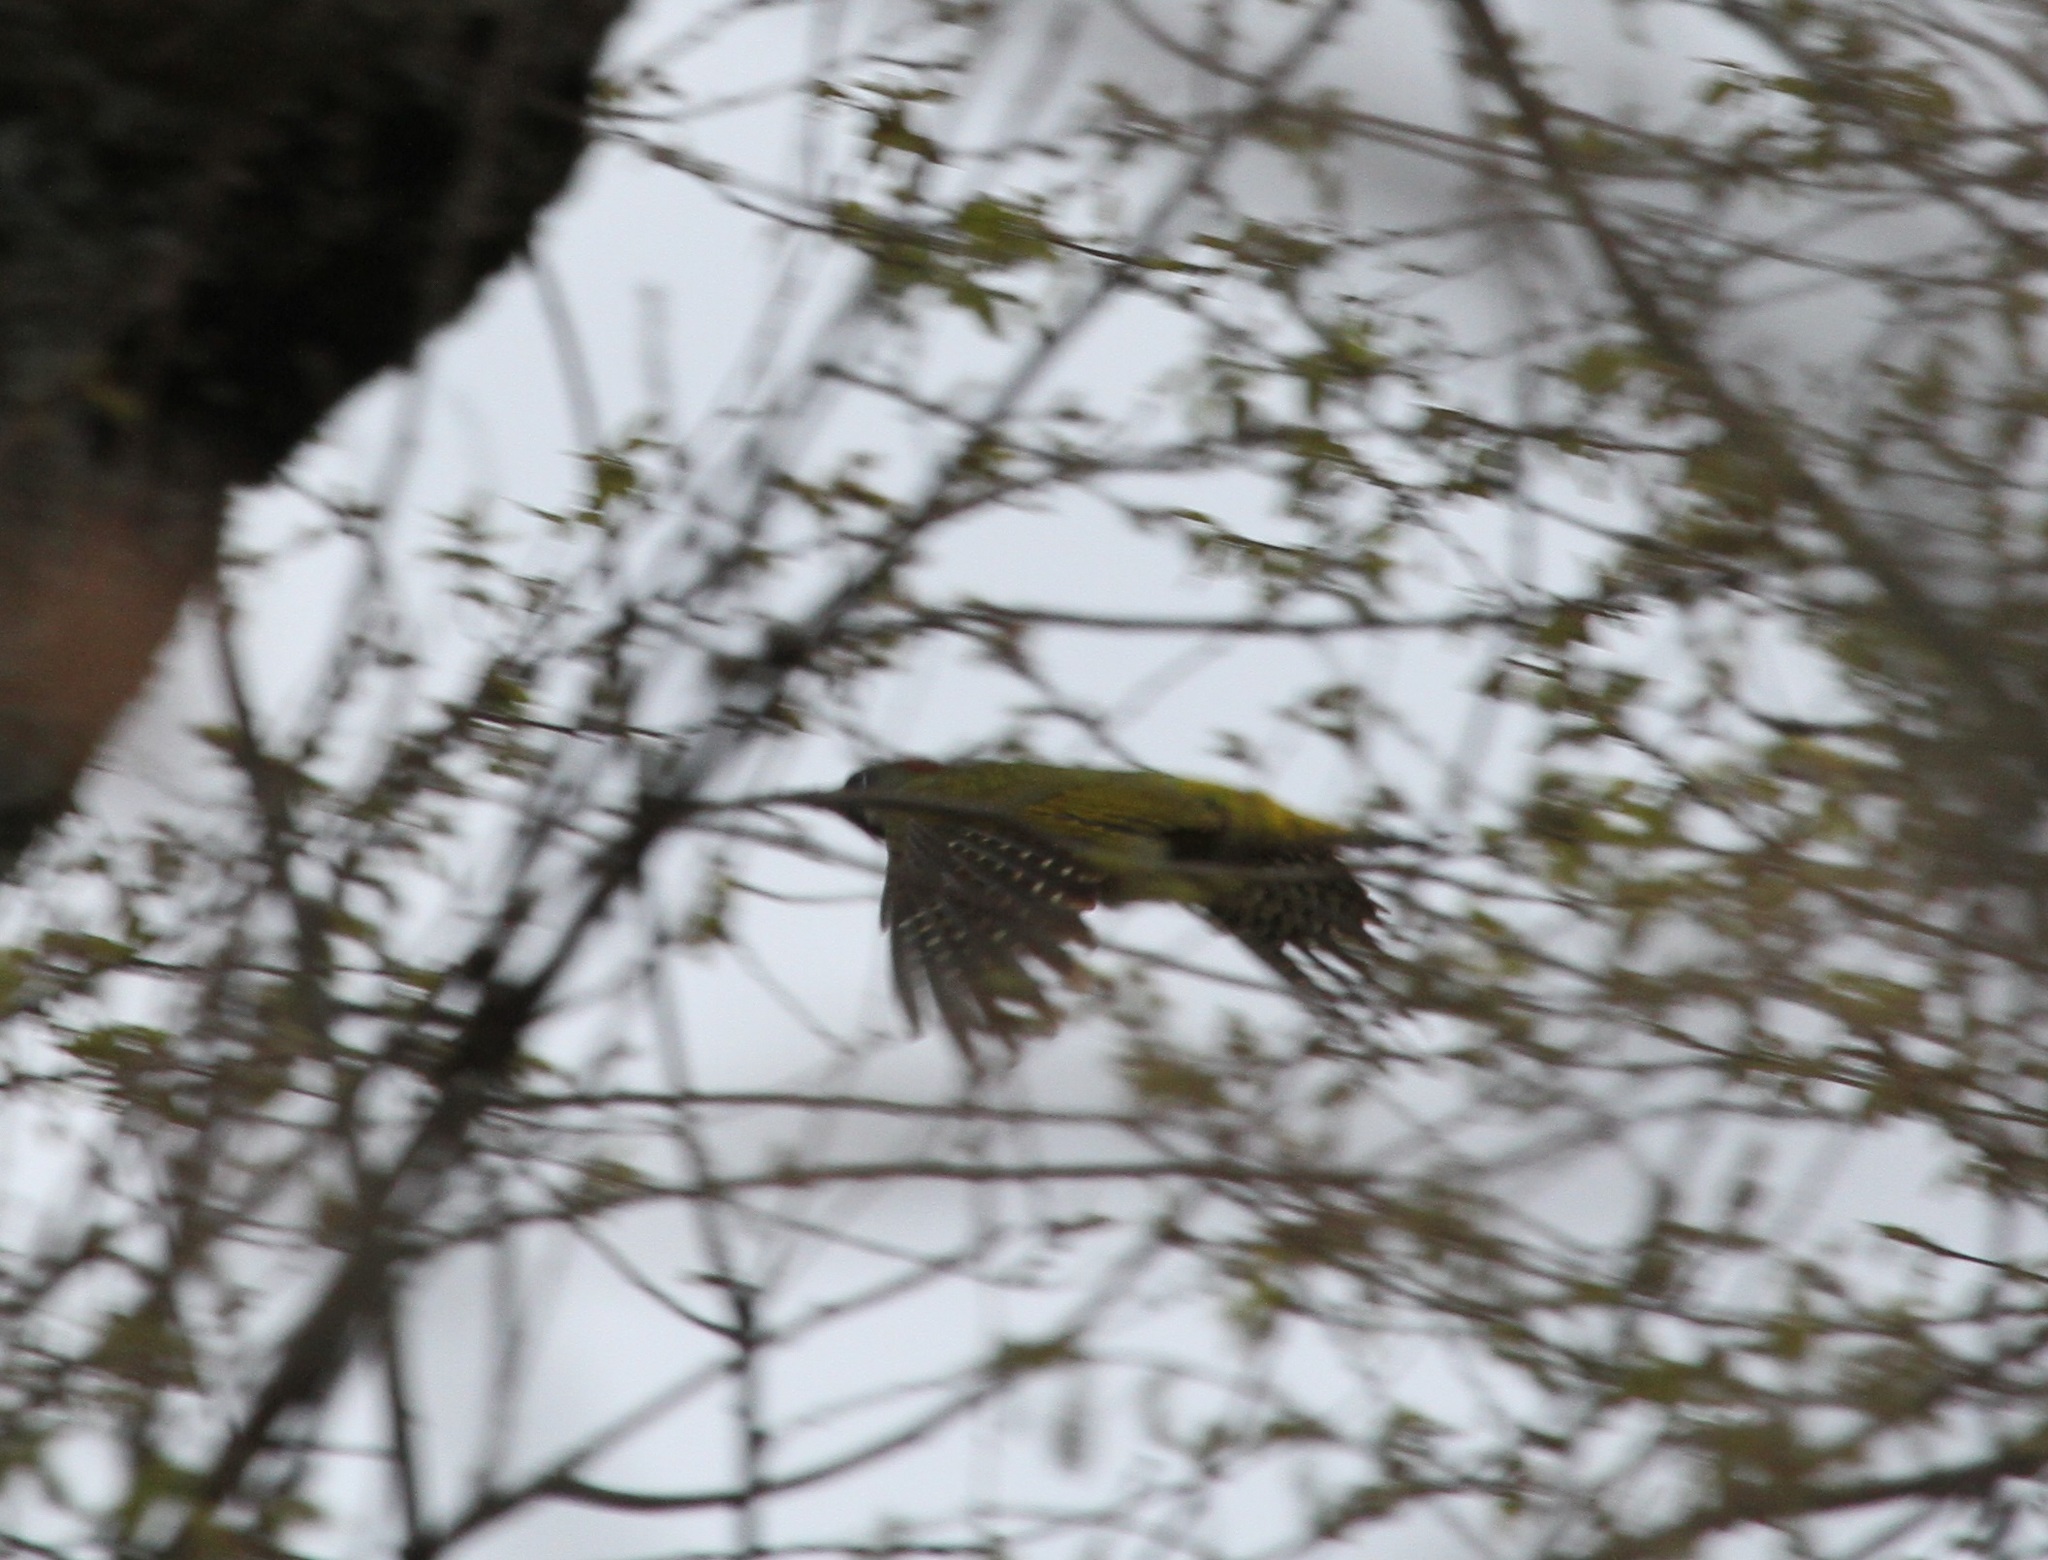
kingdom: Animalia
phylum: Chordata
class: Aves
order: Piciformes
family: Picidae
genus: Picus
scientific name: Picus vaillantii
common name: Levaillant's woodpecker
